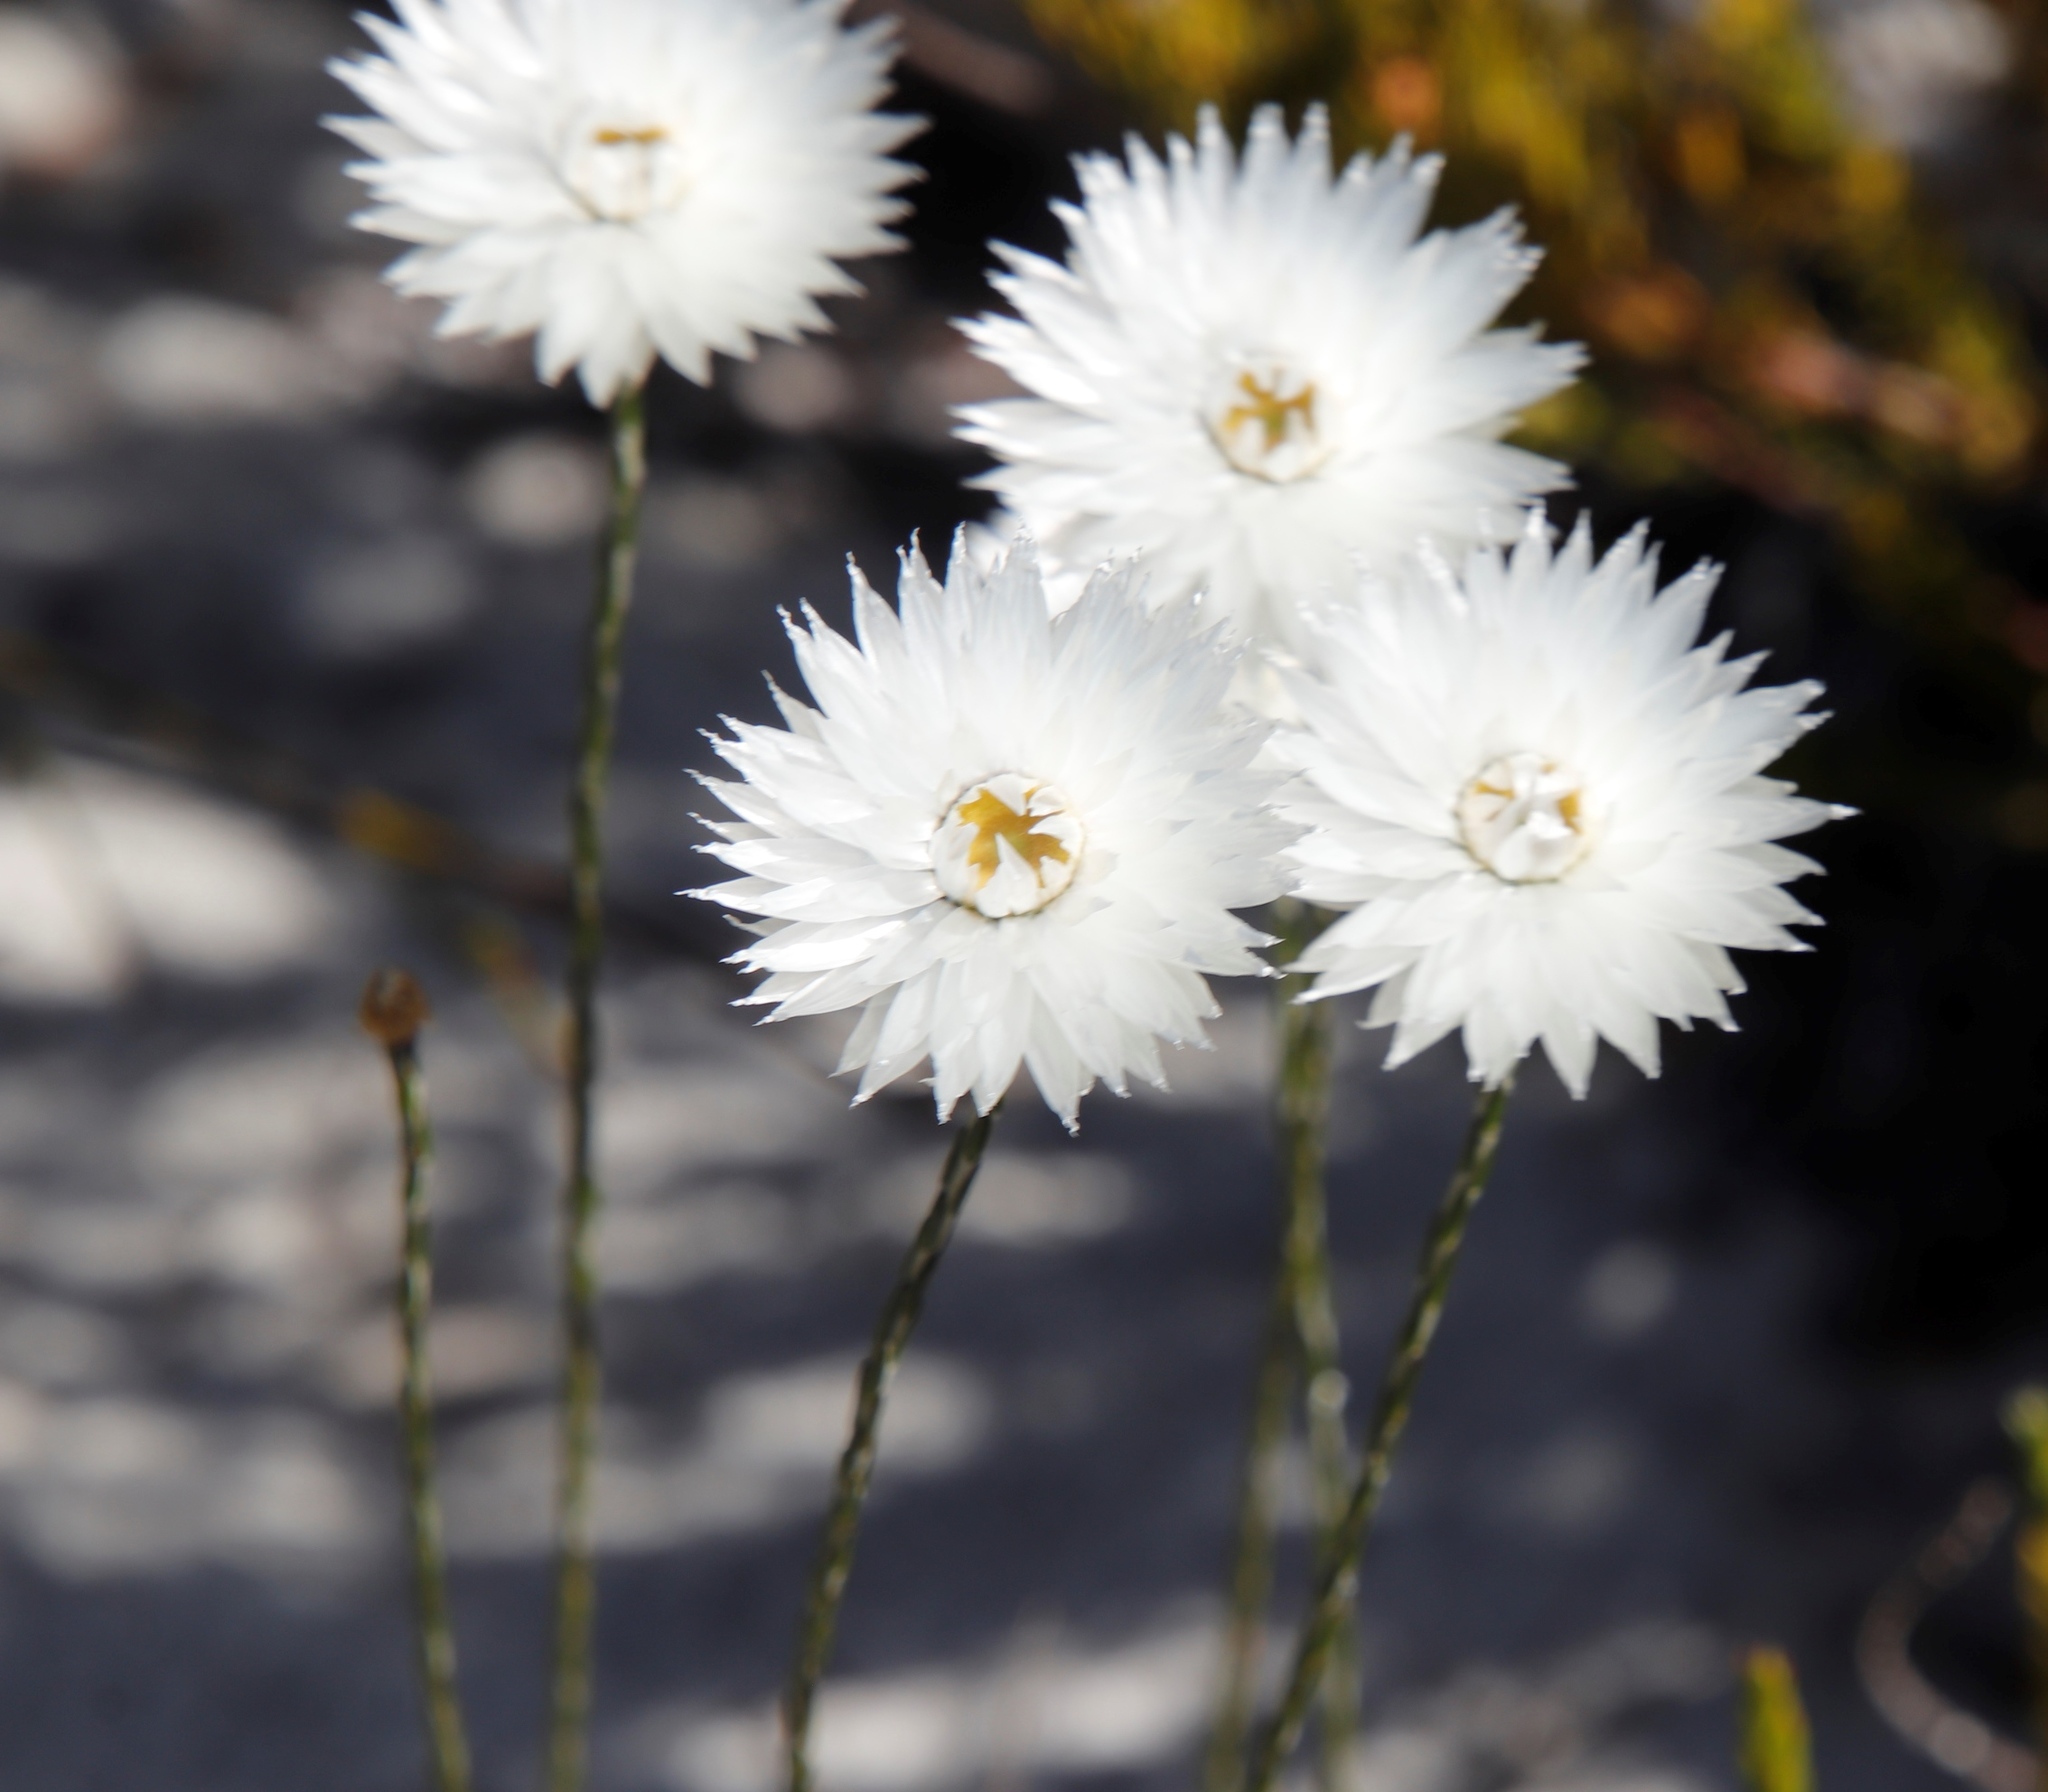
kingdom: Plantae
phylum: Tracheophyta
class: Magnoliopsida
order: Asterales
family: Asteraceae
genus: Edmondia
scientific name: Edmondia sesamoides
